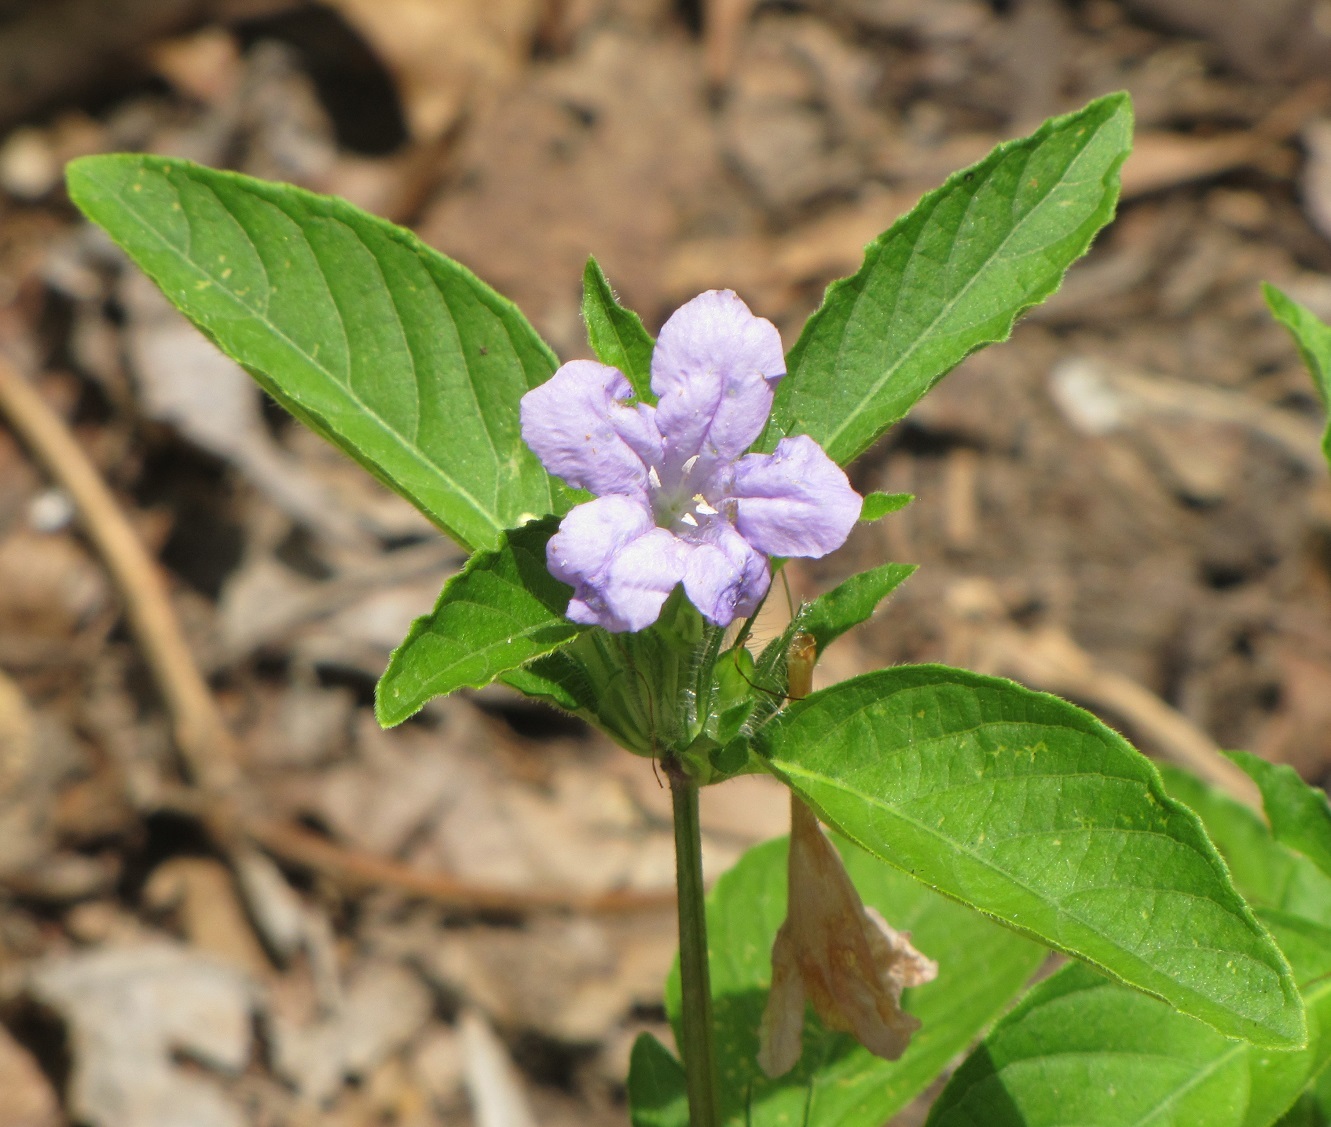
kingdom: Plantae
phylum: Tracheophyta
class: Magnoliopsida
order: Lamiales
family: Acanthaceae
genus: Ruellia
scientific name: Ruellia caroliniensis
